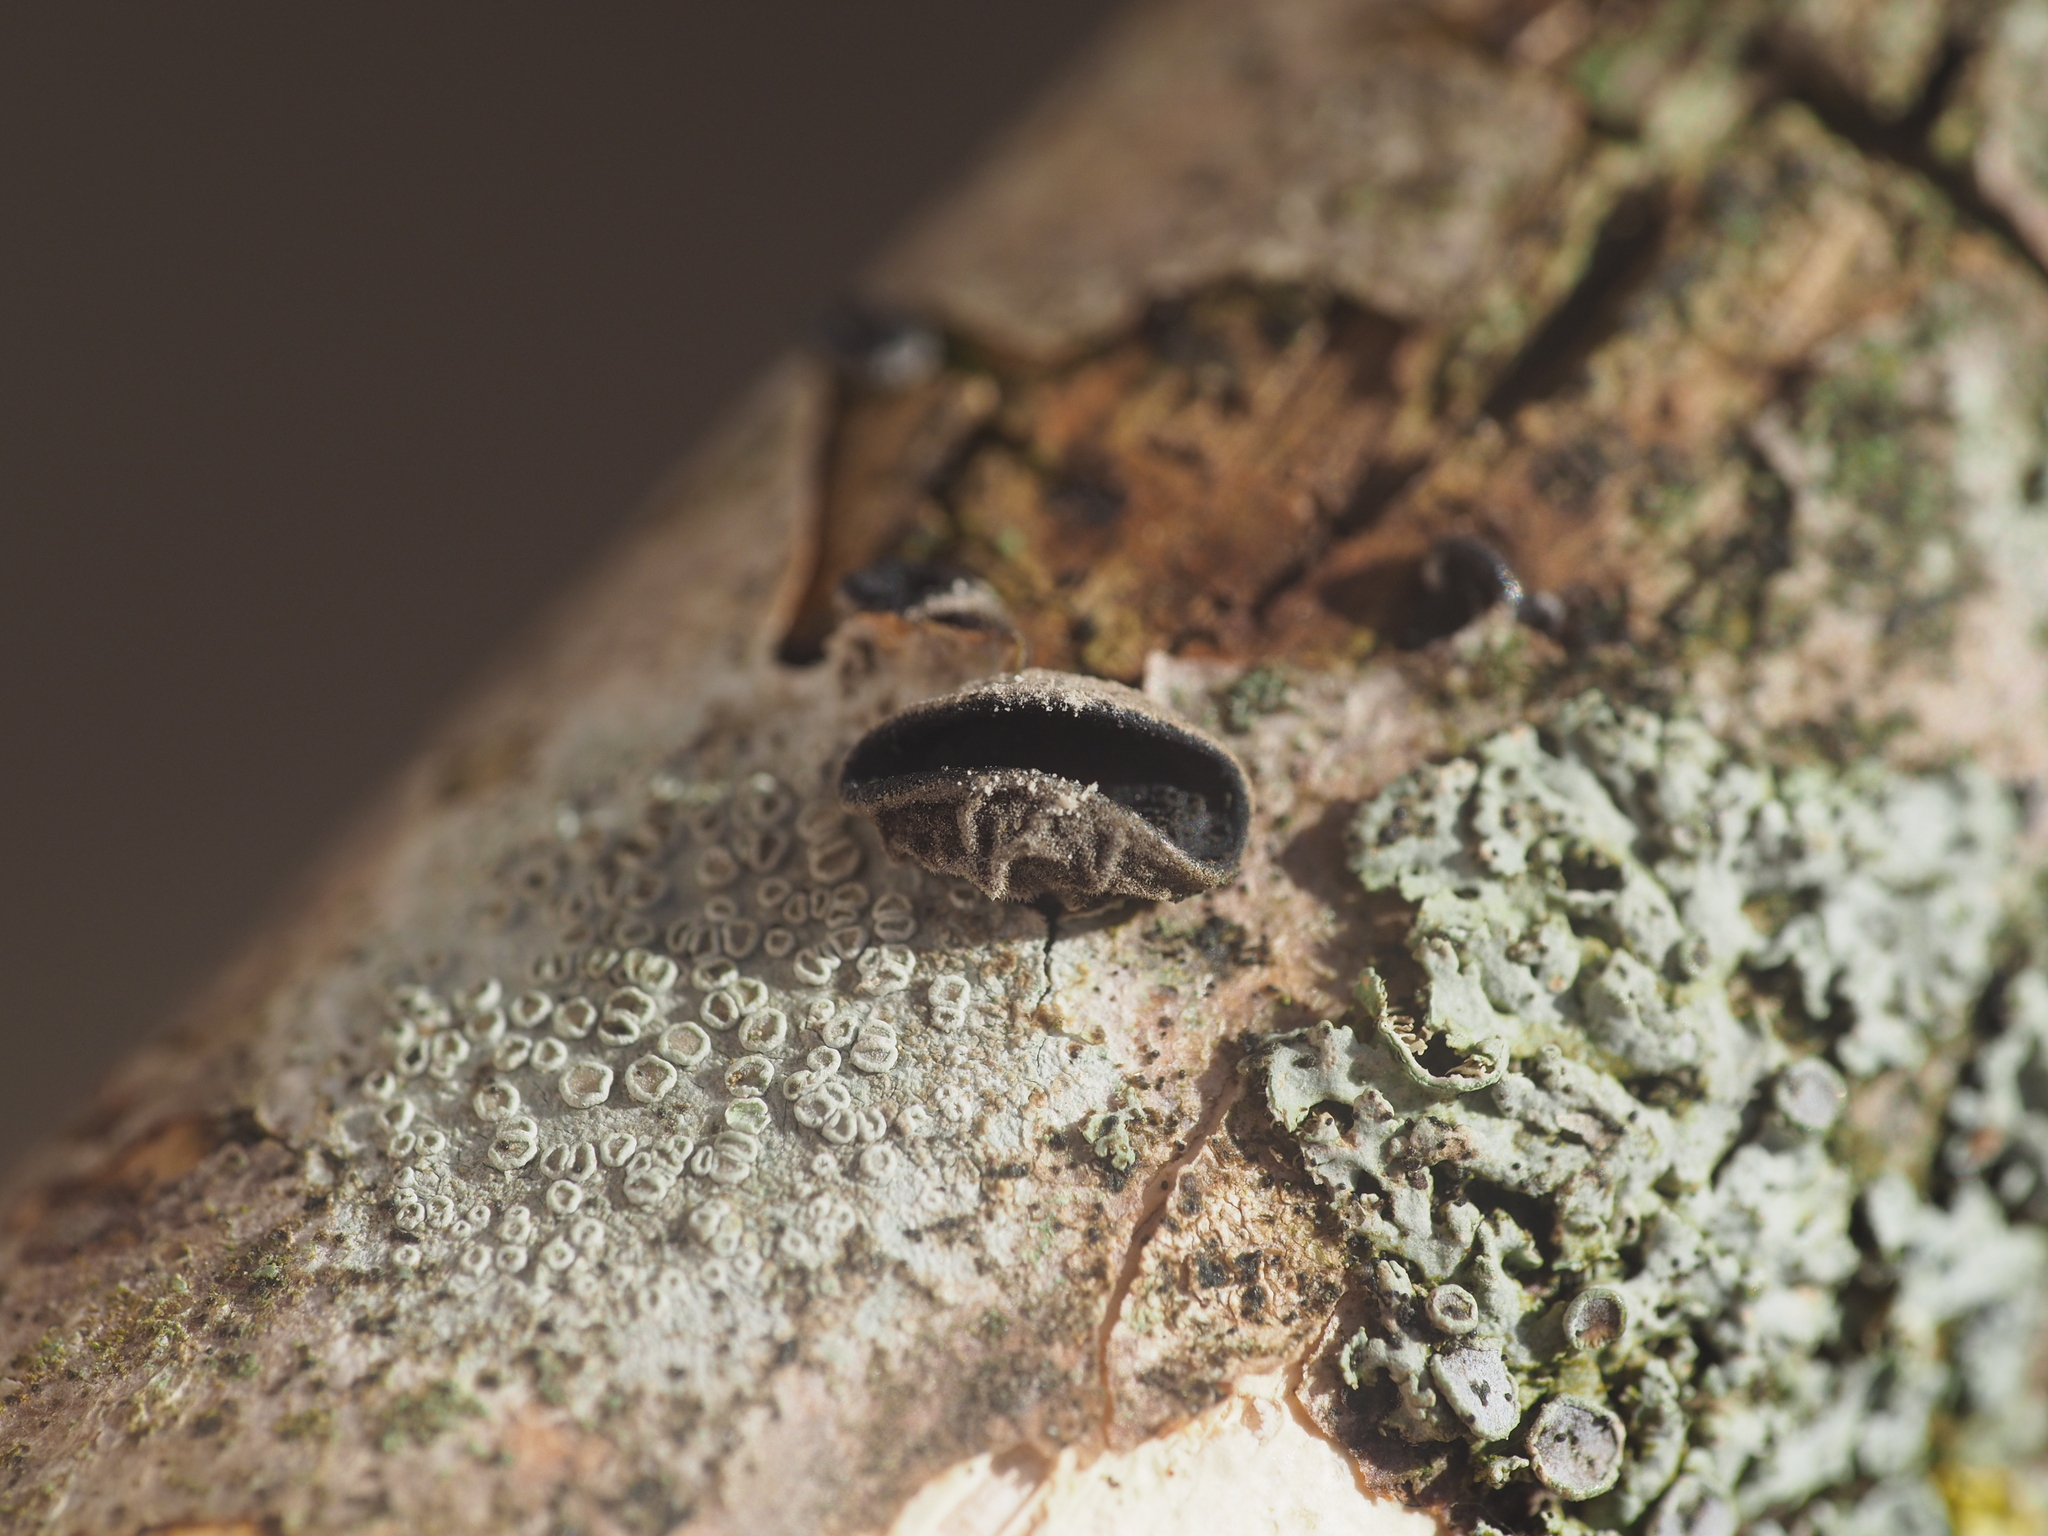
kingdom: Fungi
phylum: Basidiomycota
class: Agaricomycetes
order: Auriculariales
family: Auriculariaceae
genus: Auricularia
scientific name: Auricularia auricula-judae
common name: Jelly ear
